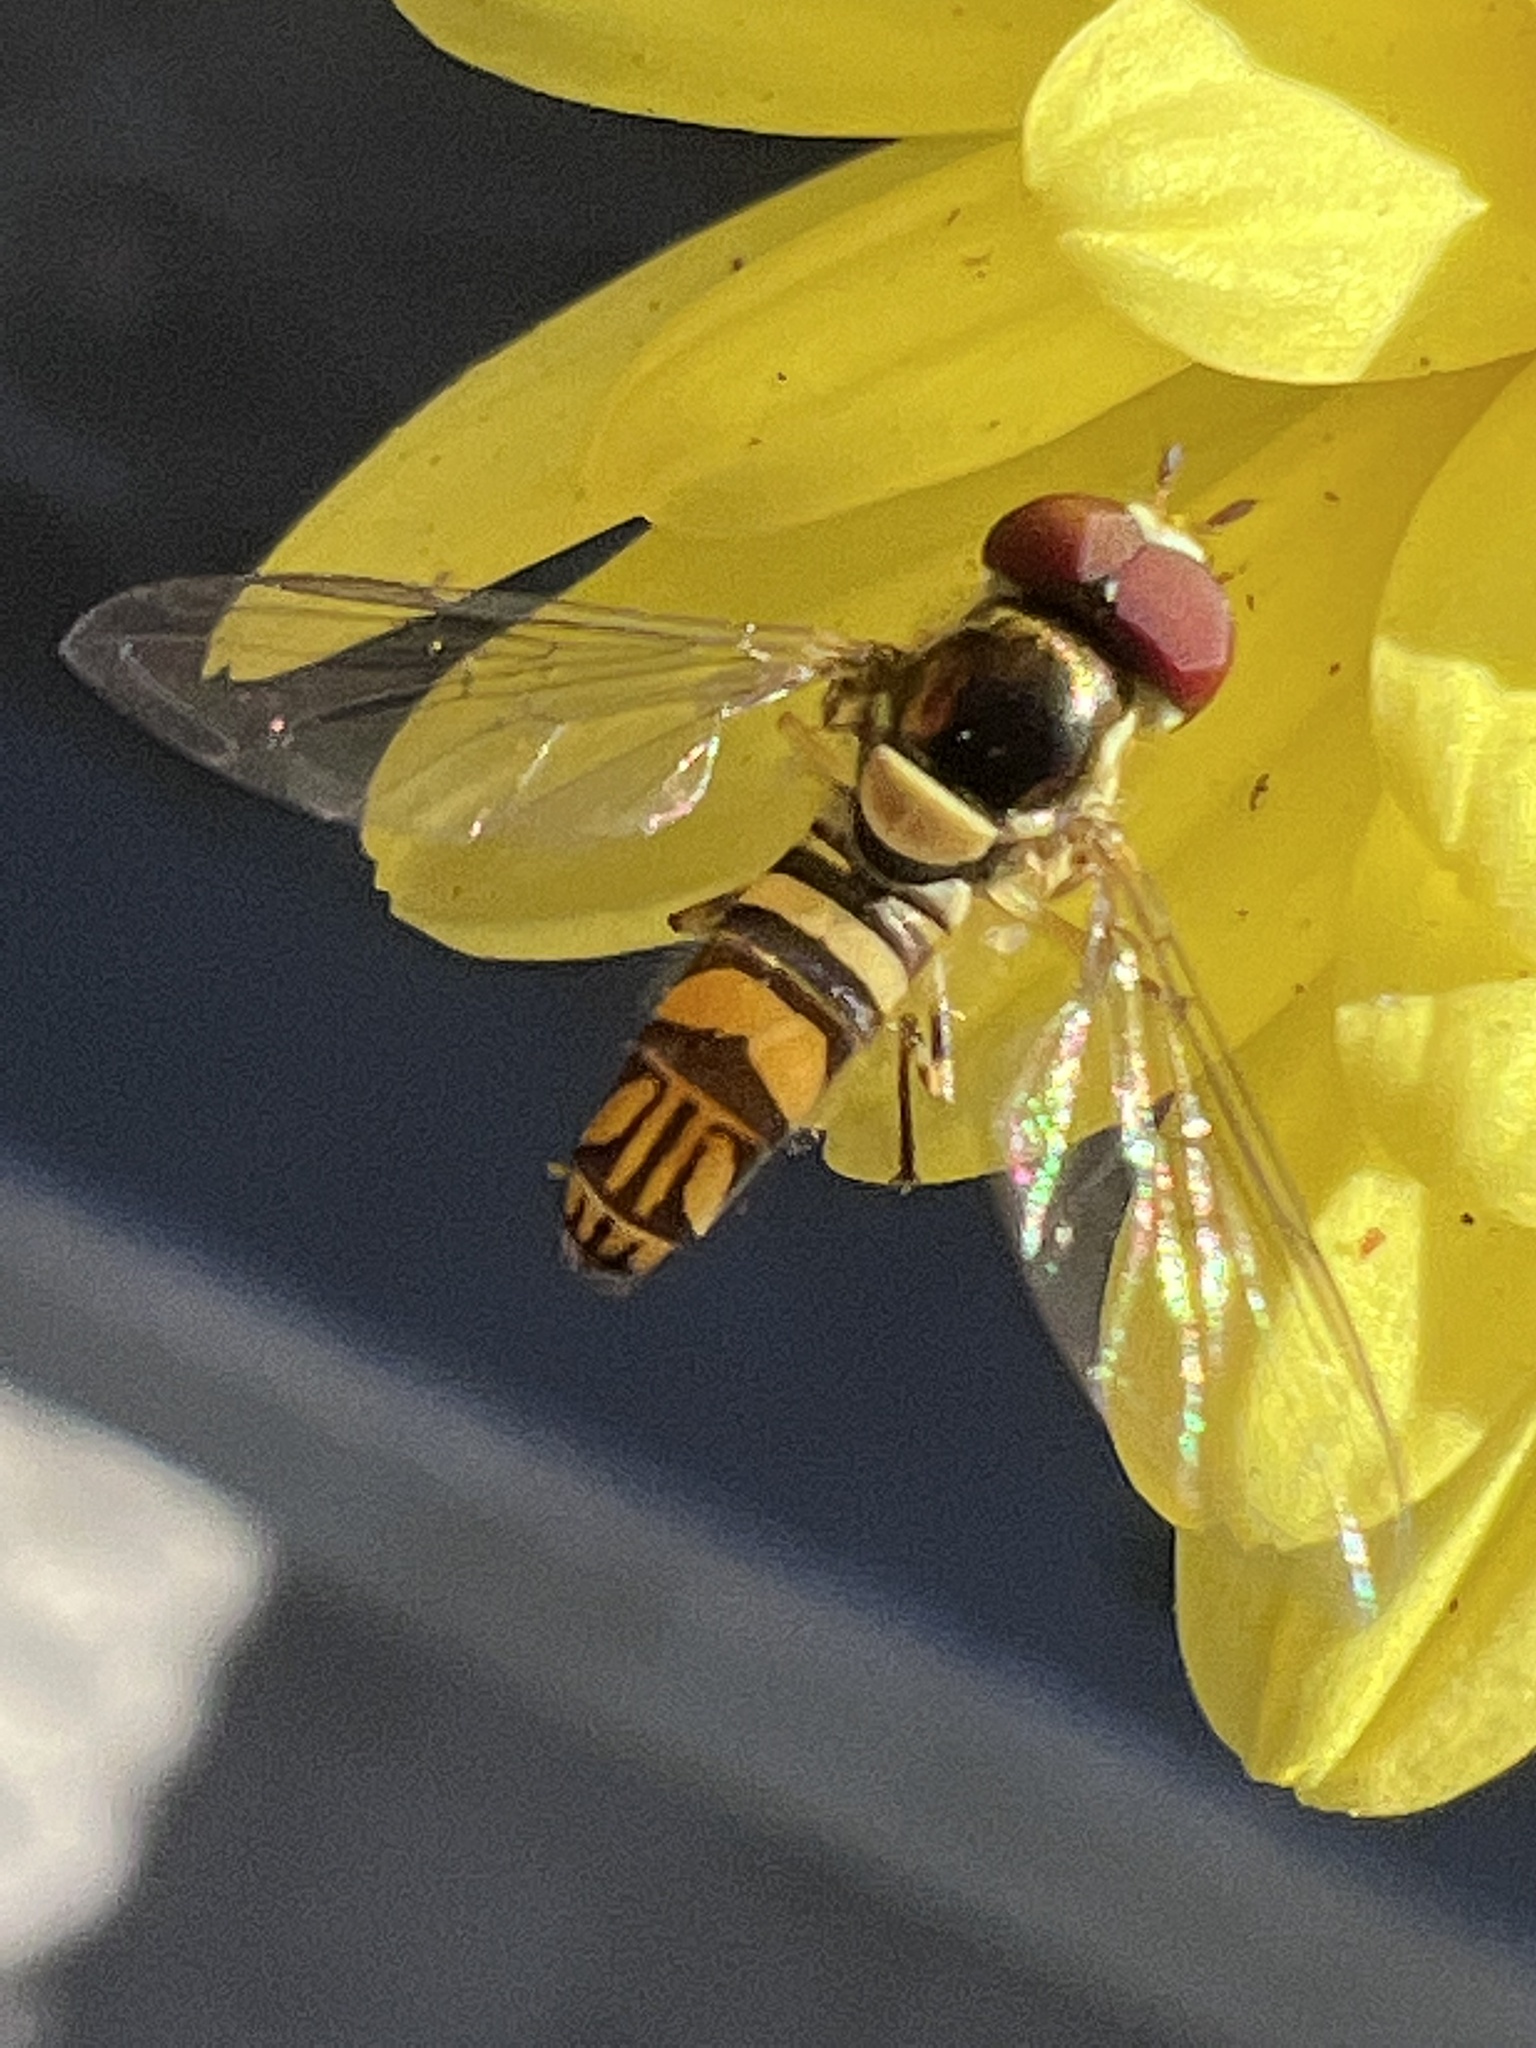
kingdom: Animalia
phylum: Arthropoda
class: Insecta
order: Diptera
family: Syrphidae
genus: Allograpta
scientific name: Allograpta obliqua
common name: Common oblique syrphid
